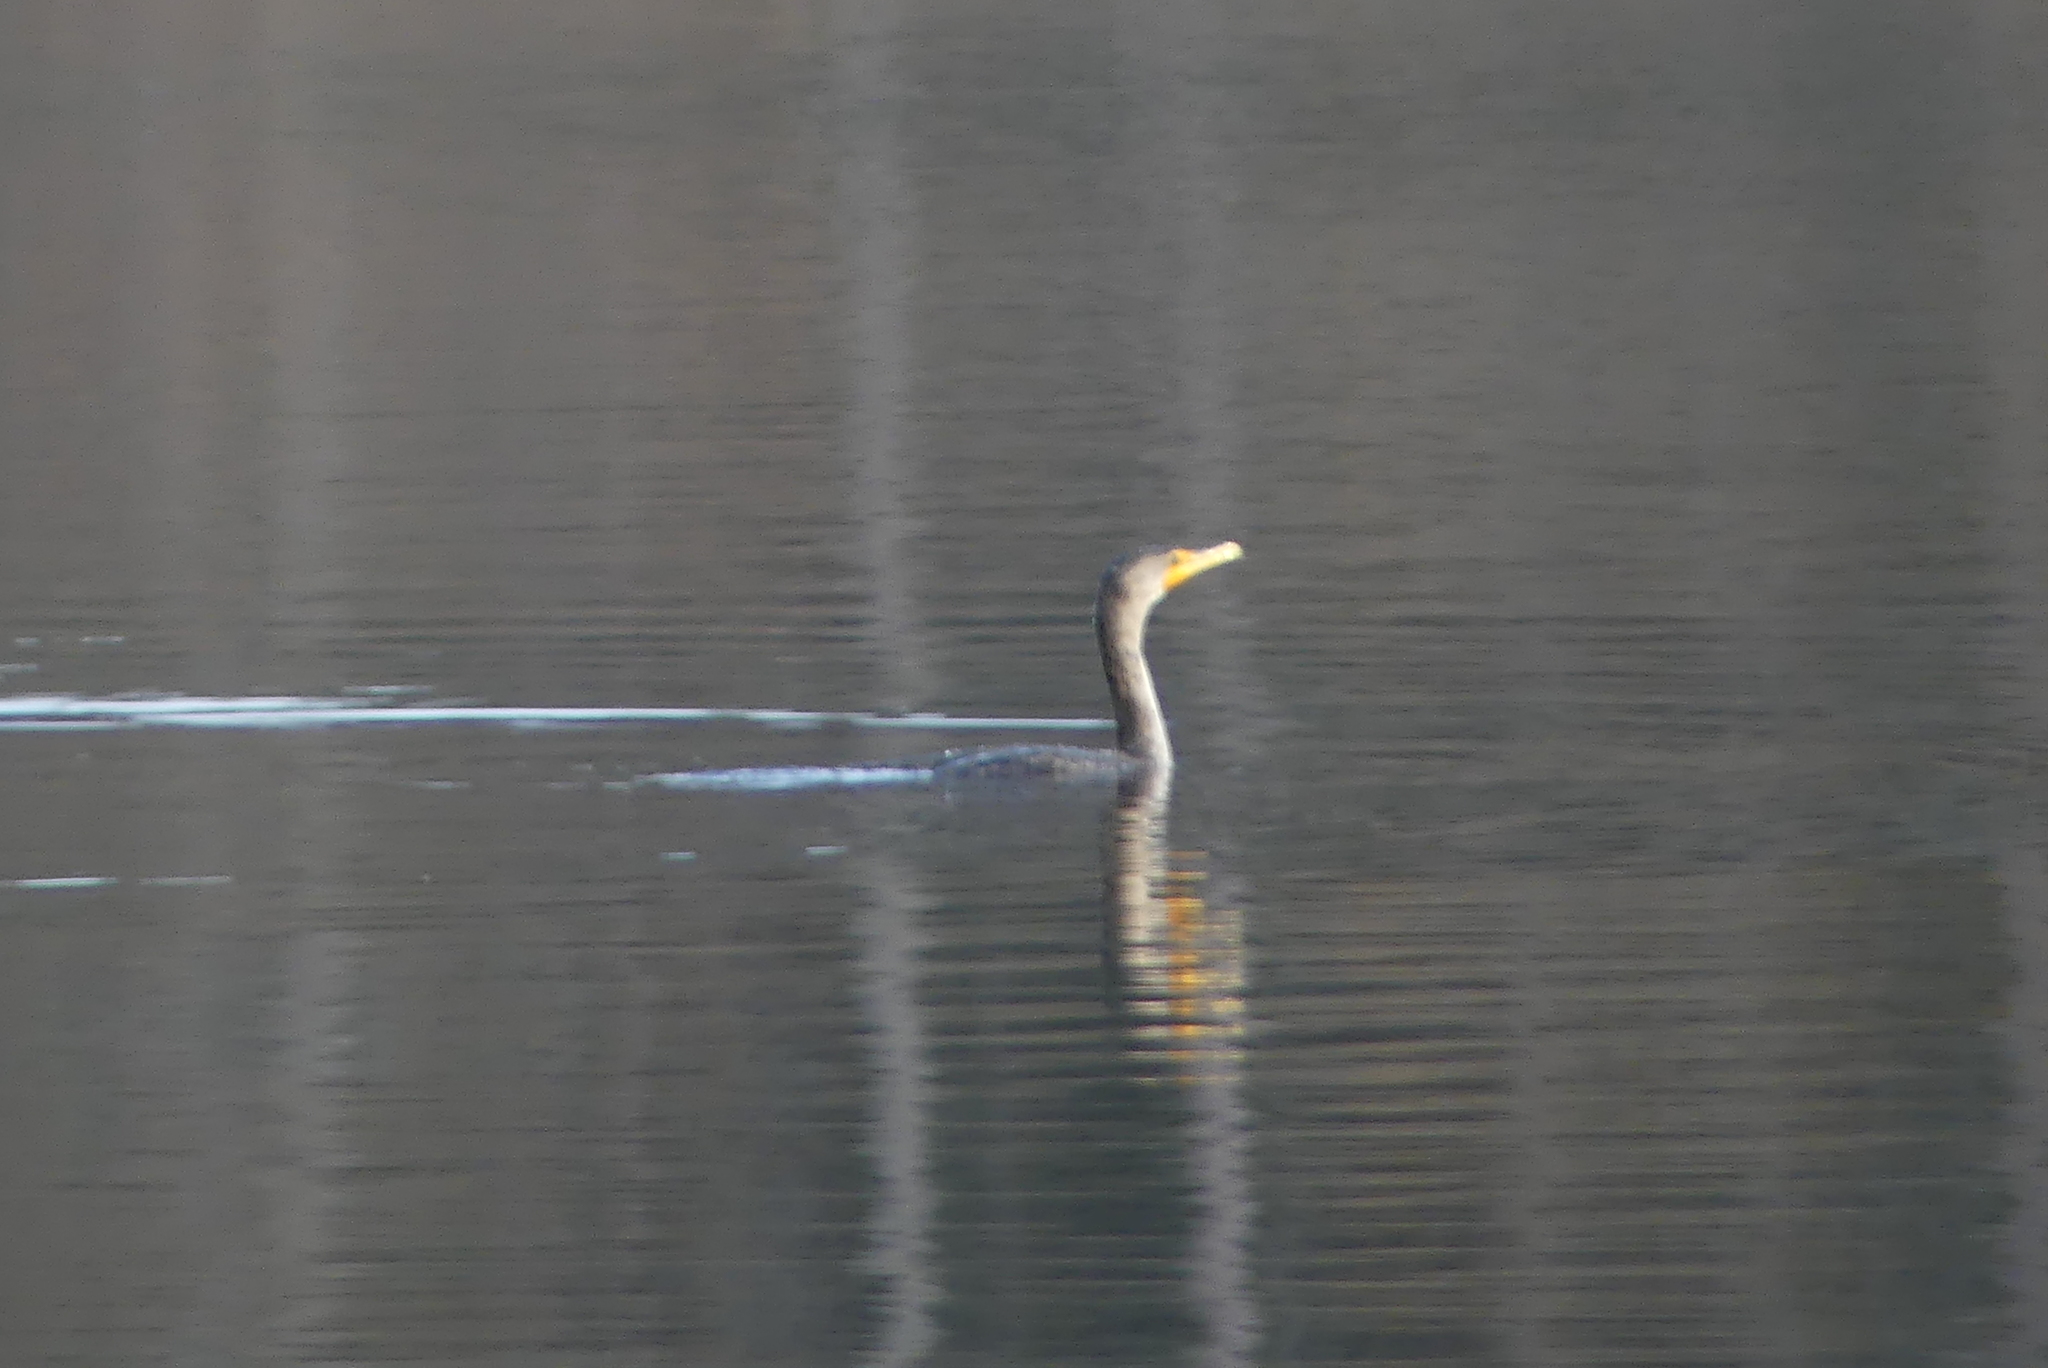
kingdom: Animalia
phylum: Chordata
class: Aves
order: Suliformes
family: Phalacrocoracidae
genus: Phalacrocorax
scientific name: Phalacrocorax auritus
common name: Double-crested cormorant
